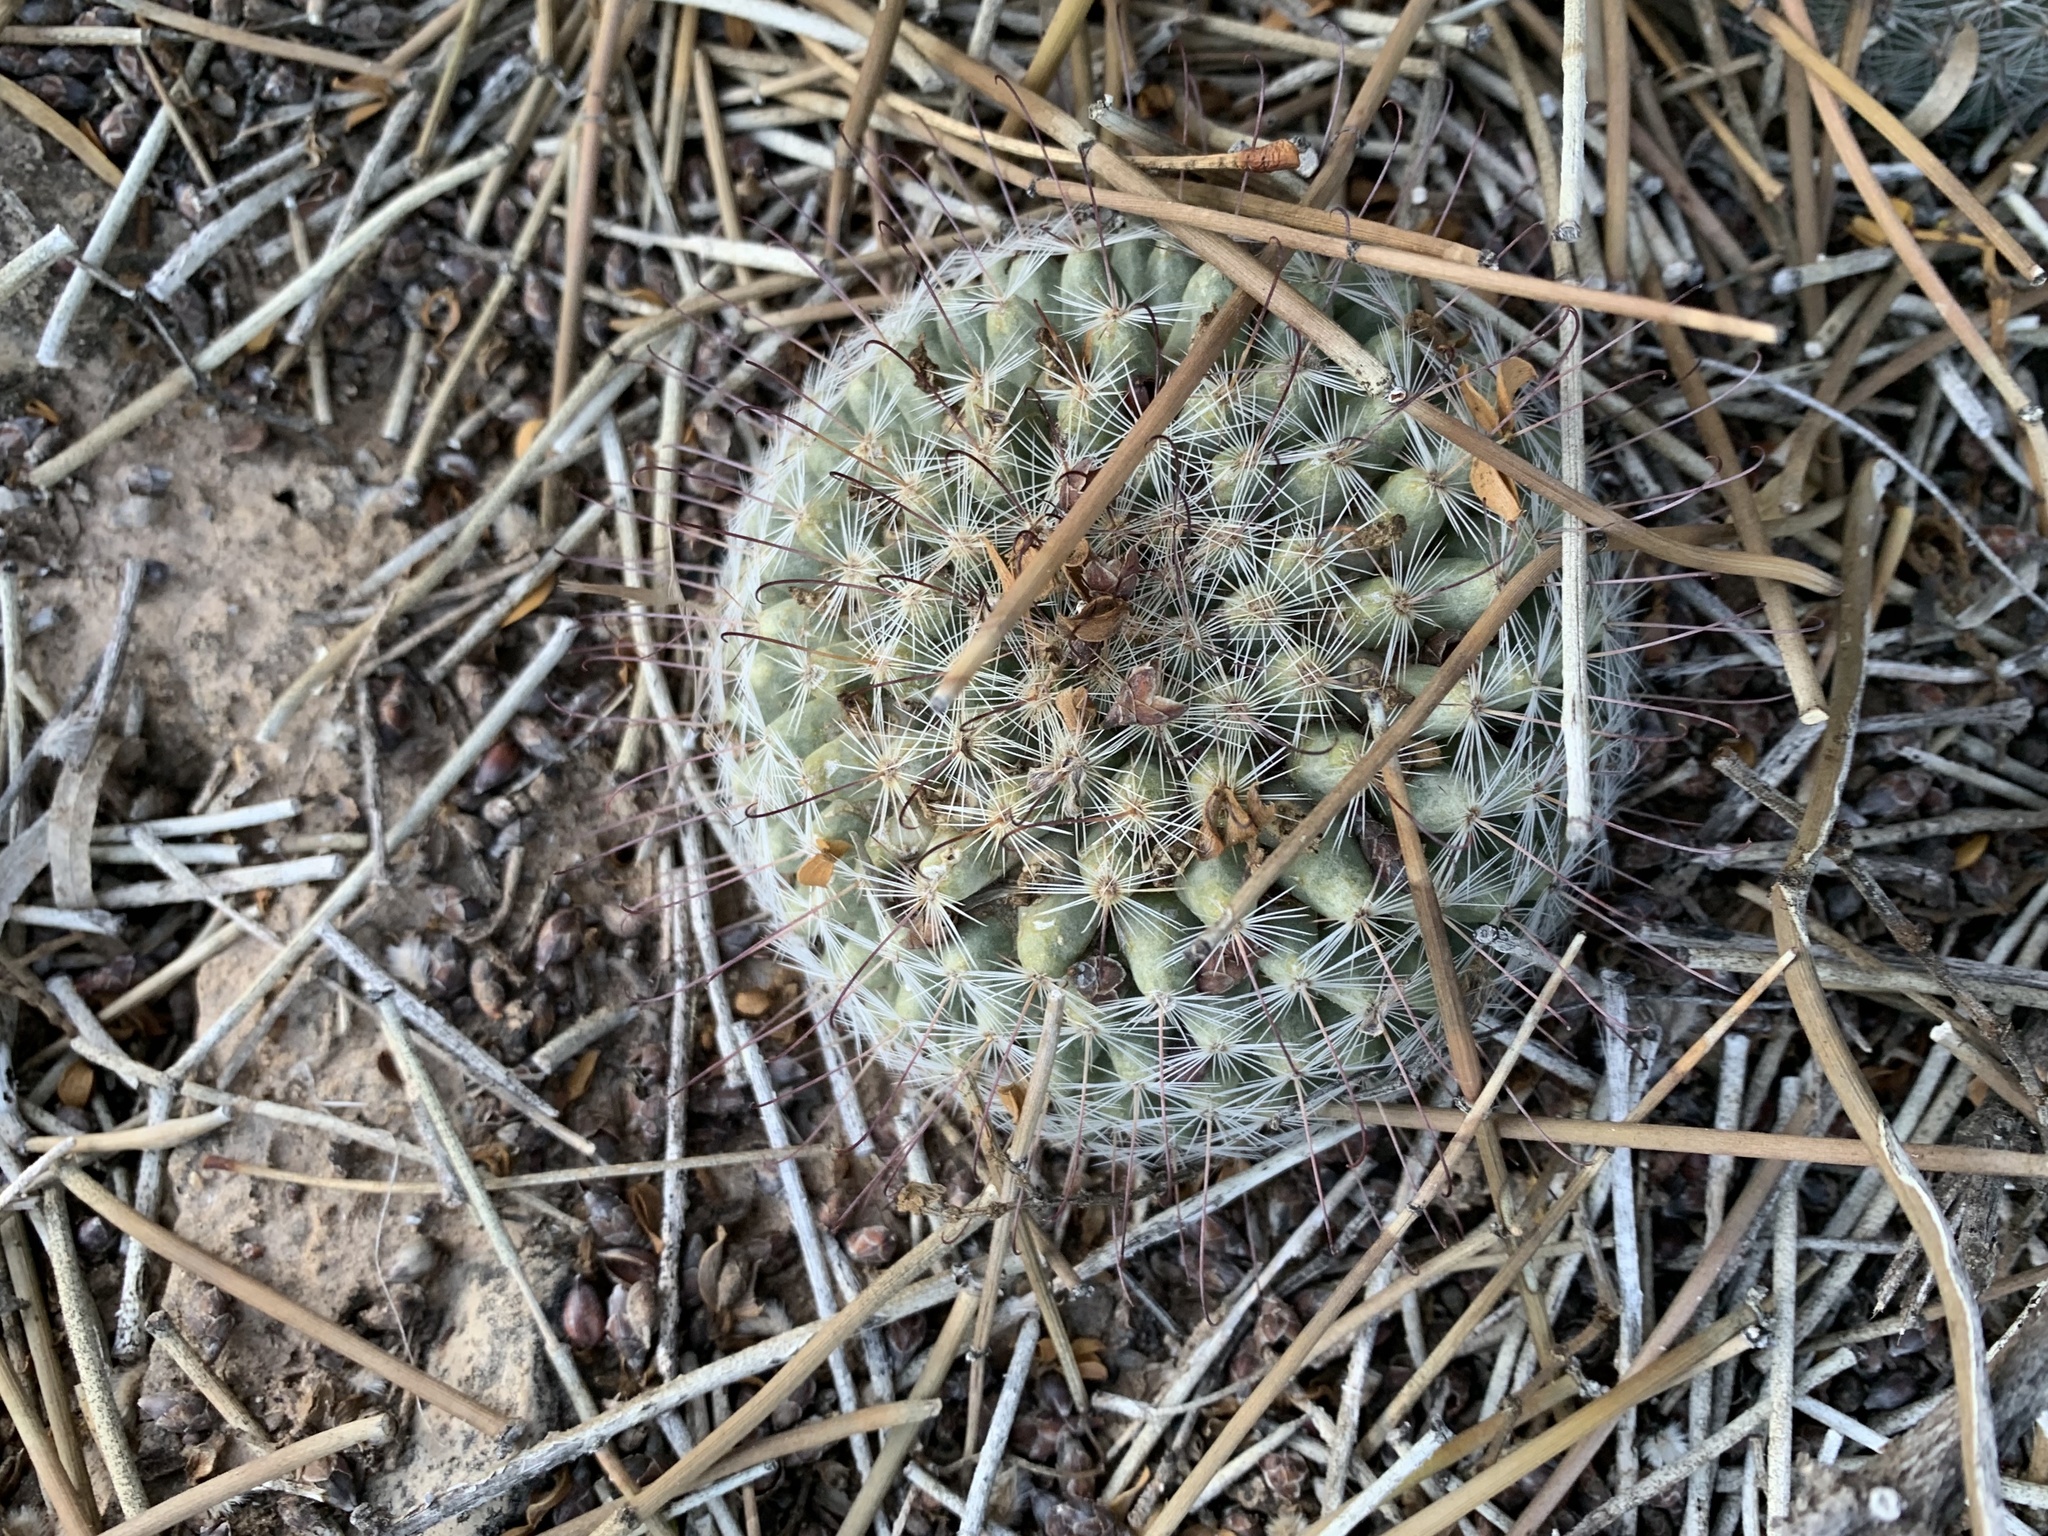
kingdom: Plantae
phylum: Tracheophyta
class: Magnoliopsida
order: Caryophyllales
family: Cactaceae
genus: Cochemiea
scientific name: Cochemiea grahamii
